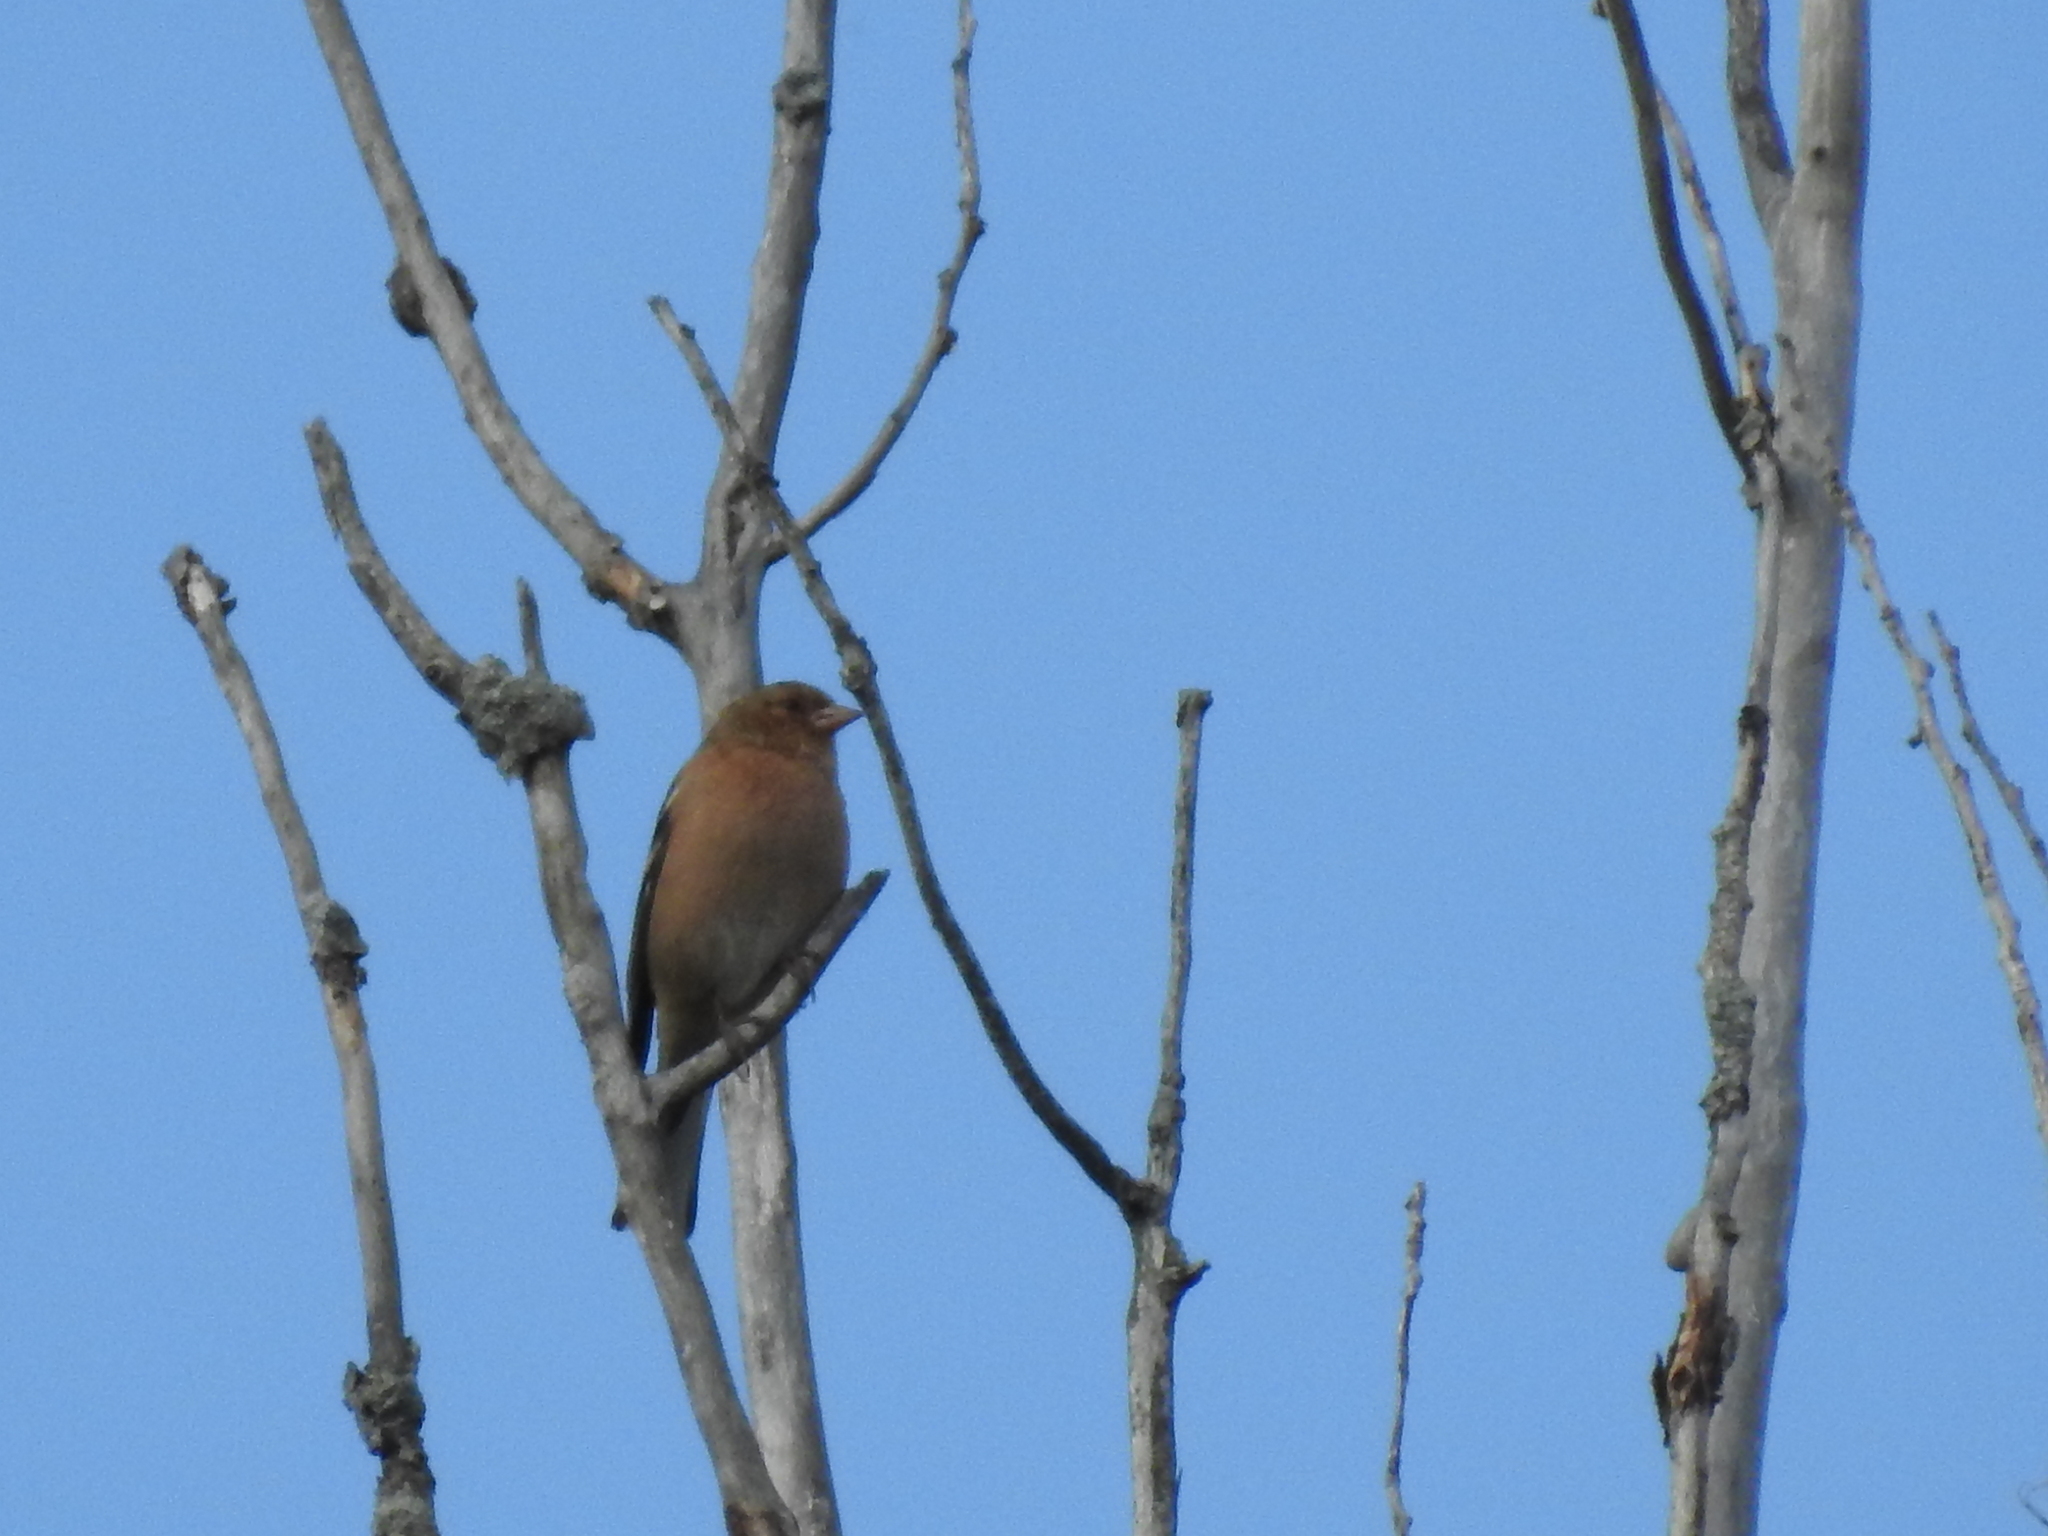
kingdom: Animalia
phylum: Chordata
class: Aves
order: Passeriformes
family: Fringillidae
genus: Fringilla
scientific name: Fringilla coelebs
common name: Common chaffinch
